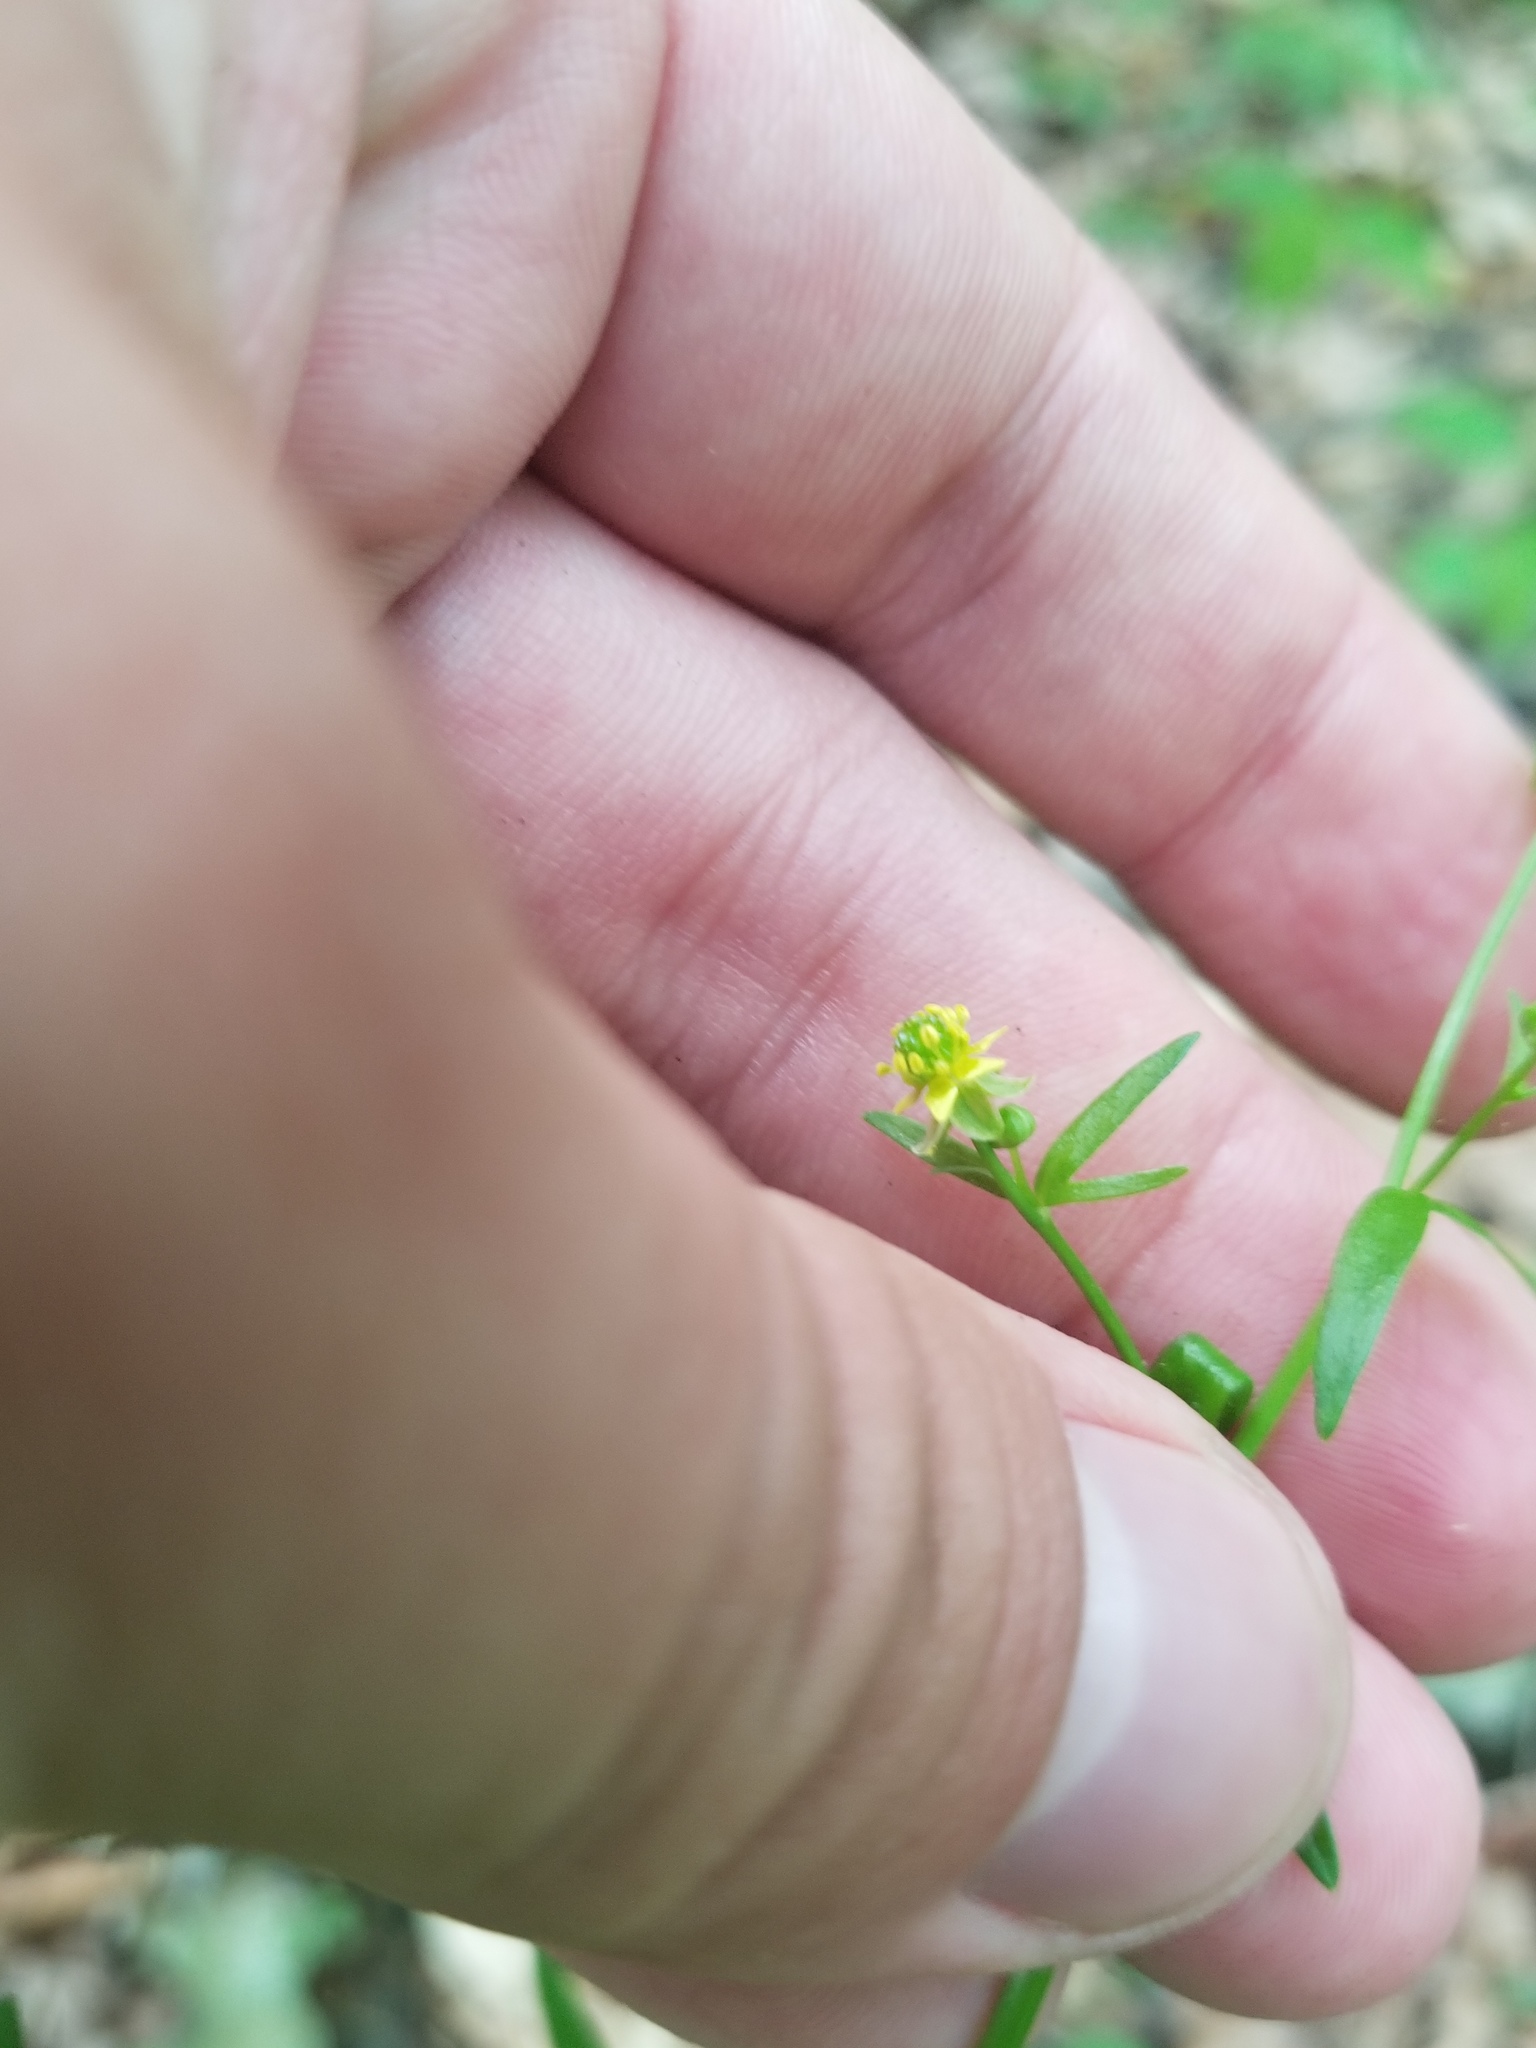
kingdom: Plantae
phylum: Tracheophyta
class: Magnoliopsida
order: Ranunculales
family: Ranunculaceae
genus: Ranunculus
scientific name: Ranunculus abortivus
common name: Early wood buttercup
